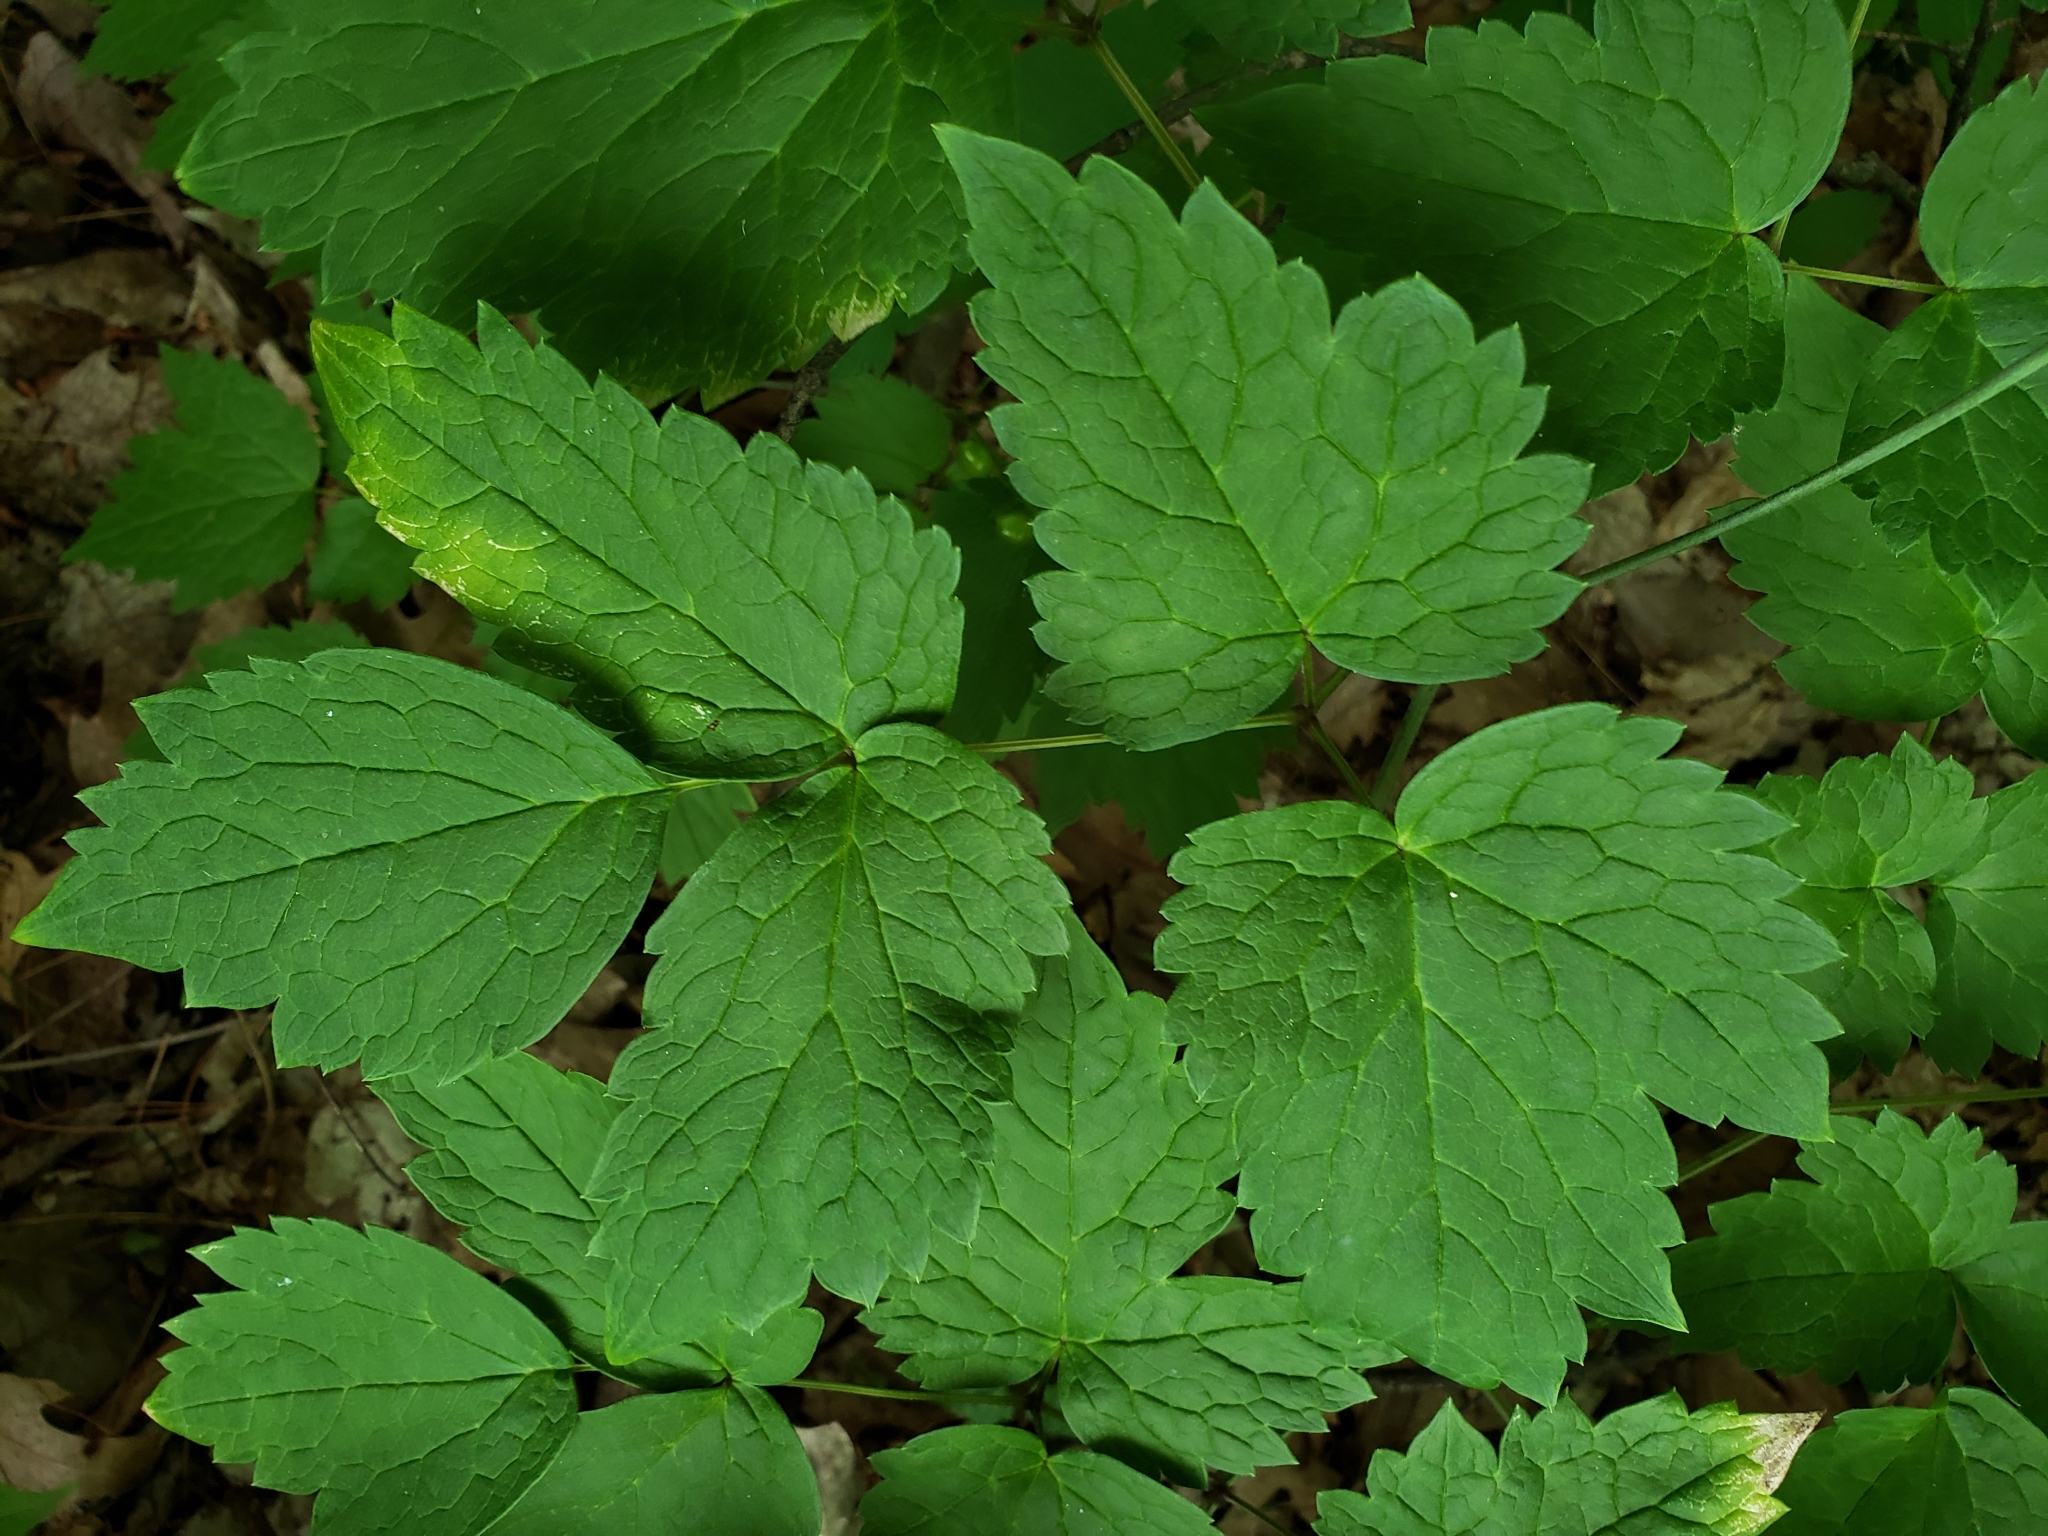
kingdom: Plantae
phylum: Tracheophyta
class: Magnoliopsida
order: Ranunculales
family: Ranunculaceae
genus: Actaea
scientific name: Actaea rubra
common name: Red baneberry
